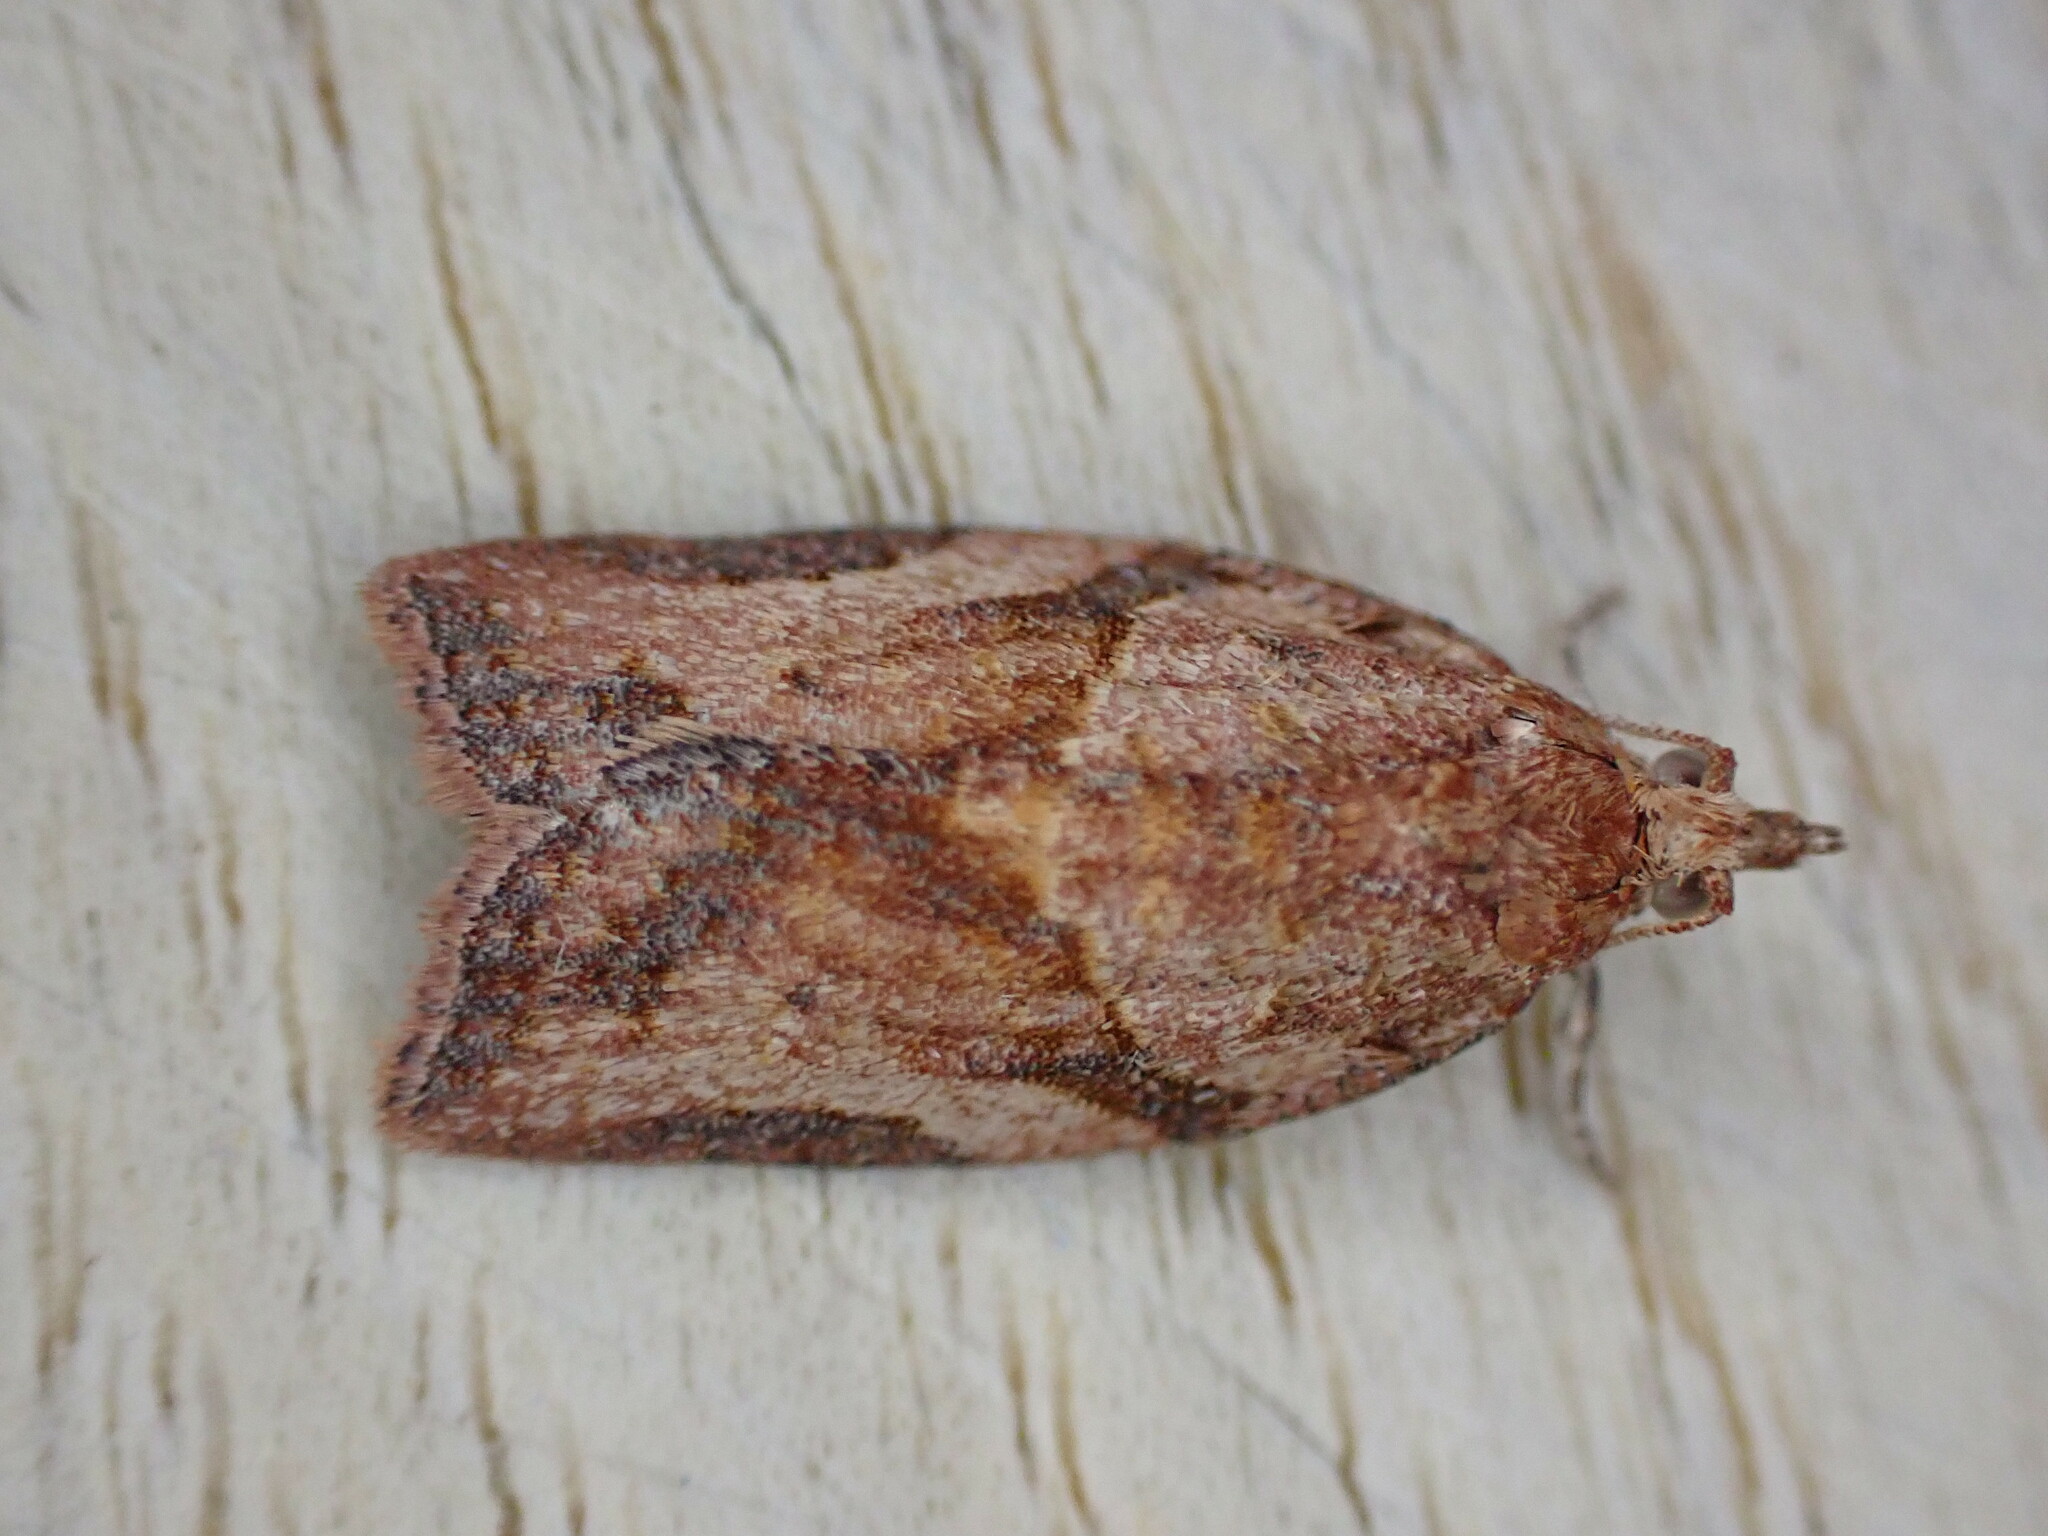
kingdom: Animalia
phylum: Arthropoda
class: Insecta
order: Lepidoptera
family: Tortricidae
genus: Epiphyas
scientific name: Epiphyas postvittana
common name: Light brown apple moth
